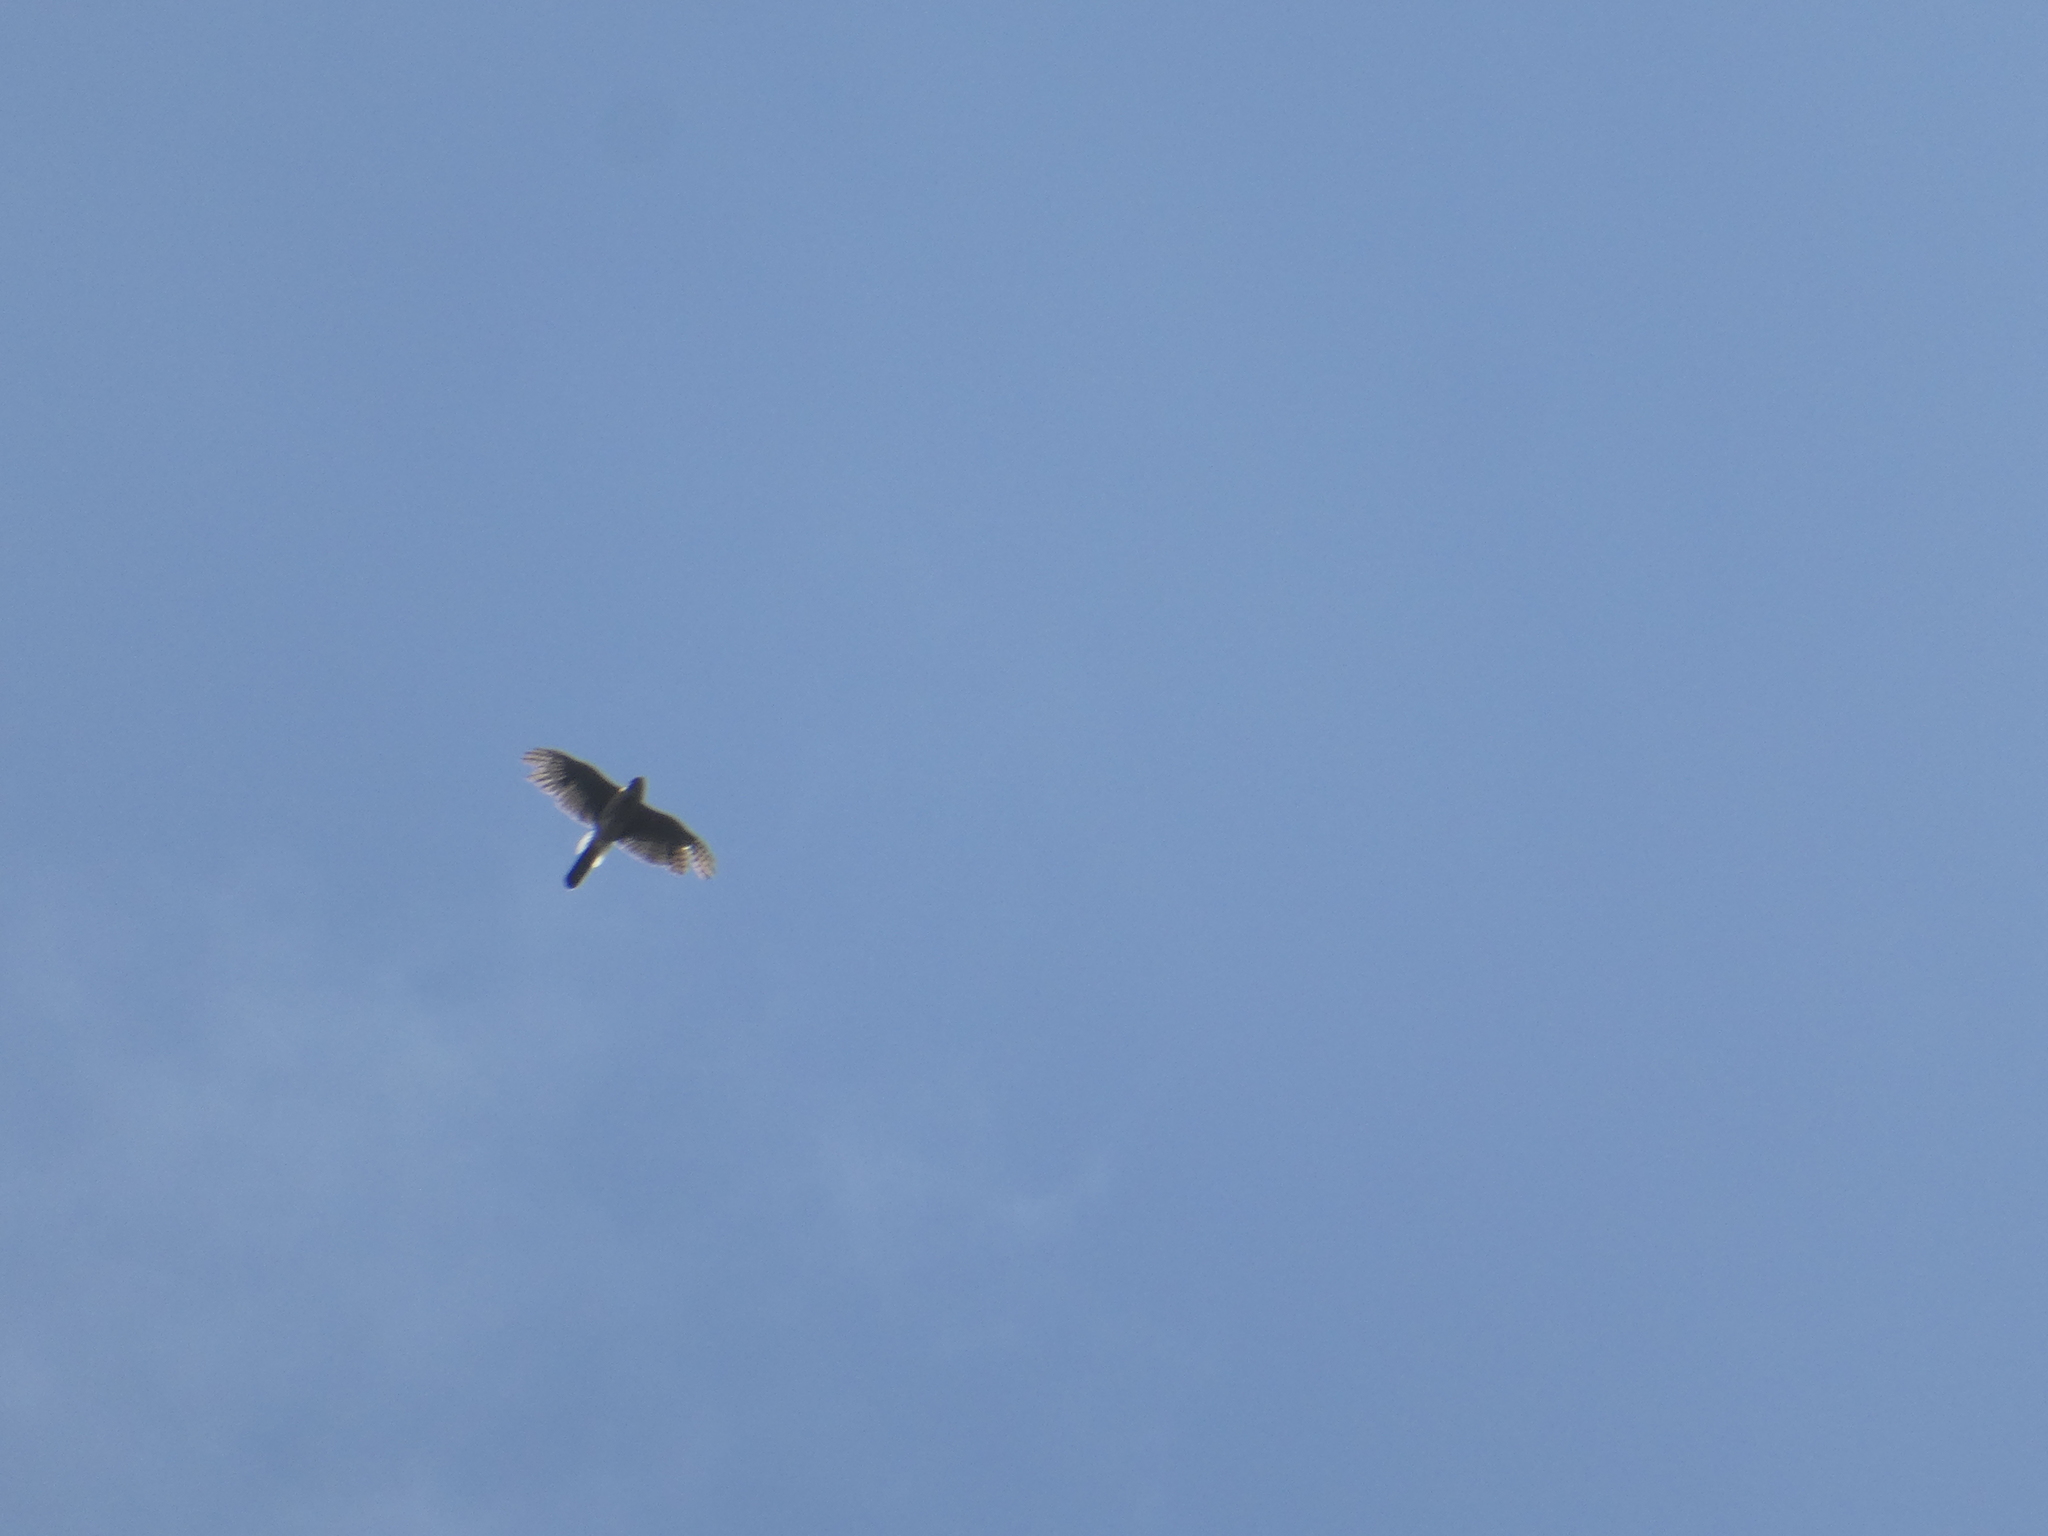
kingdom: Animalia
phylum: Chordata
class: Aves
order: Accipitriformes
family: Accipitridae
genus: Accipiter
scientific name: Accipiter cooperii
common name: Cooper's hawk
